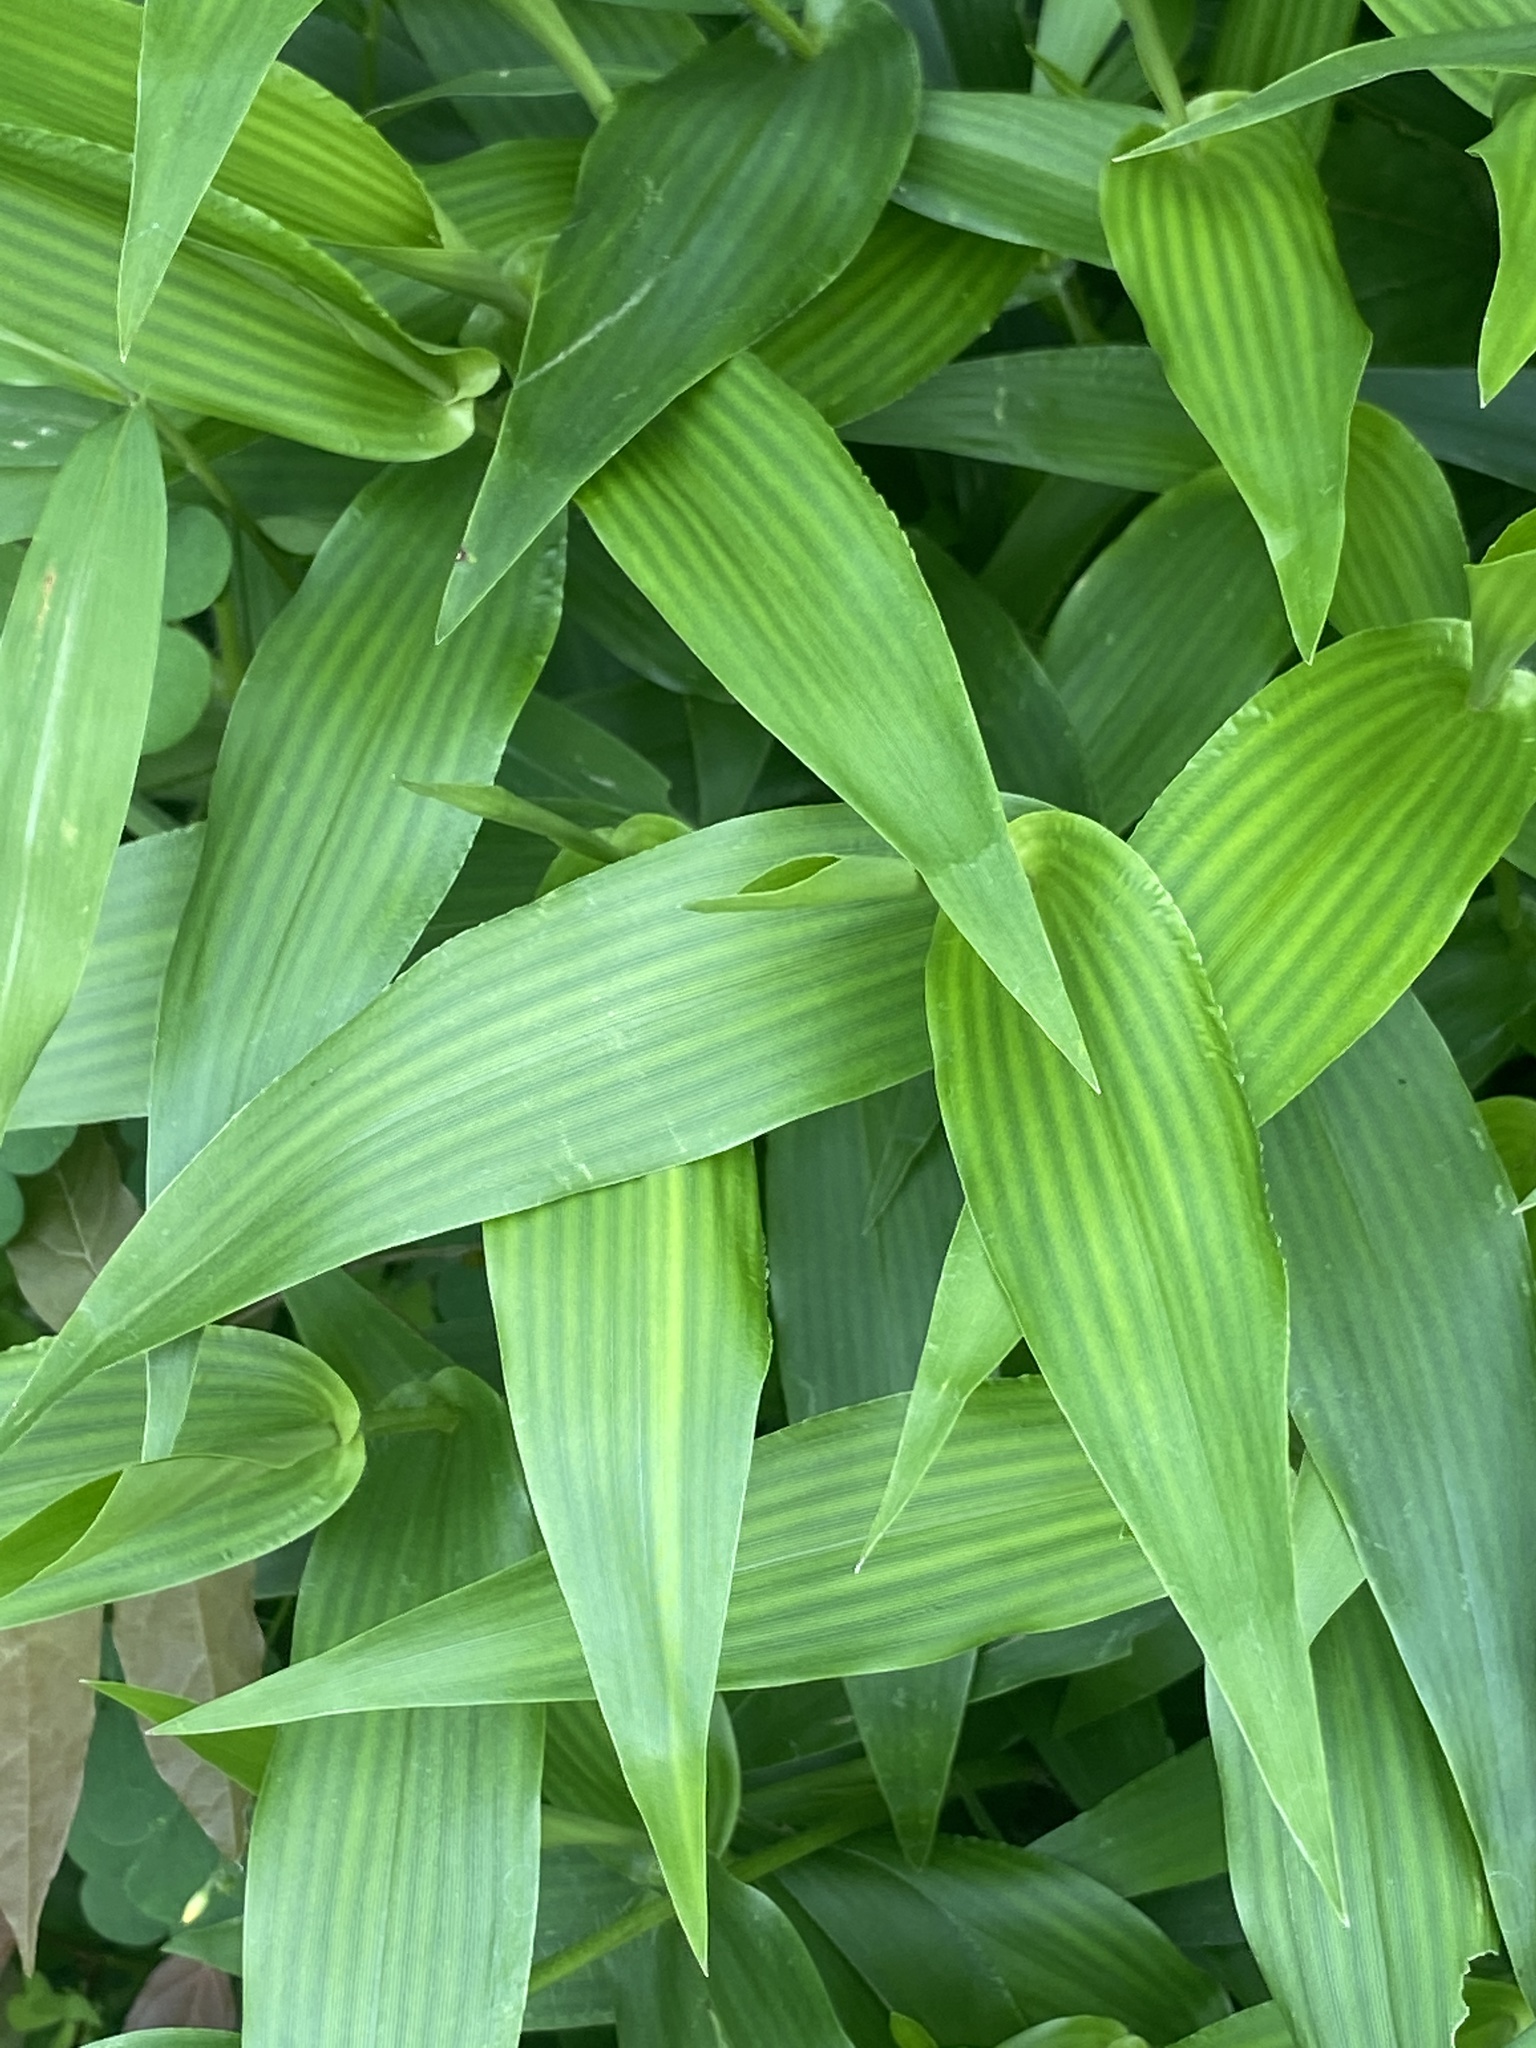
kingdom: Plantae
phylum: Tracheophyta
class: Liliopsida
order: Poales
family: Poaceae
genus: Dichanthelium
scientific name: Dichanthelium clandestinum
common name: Deer-tongue grass
